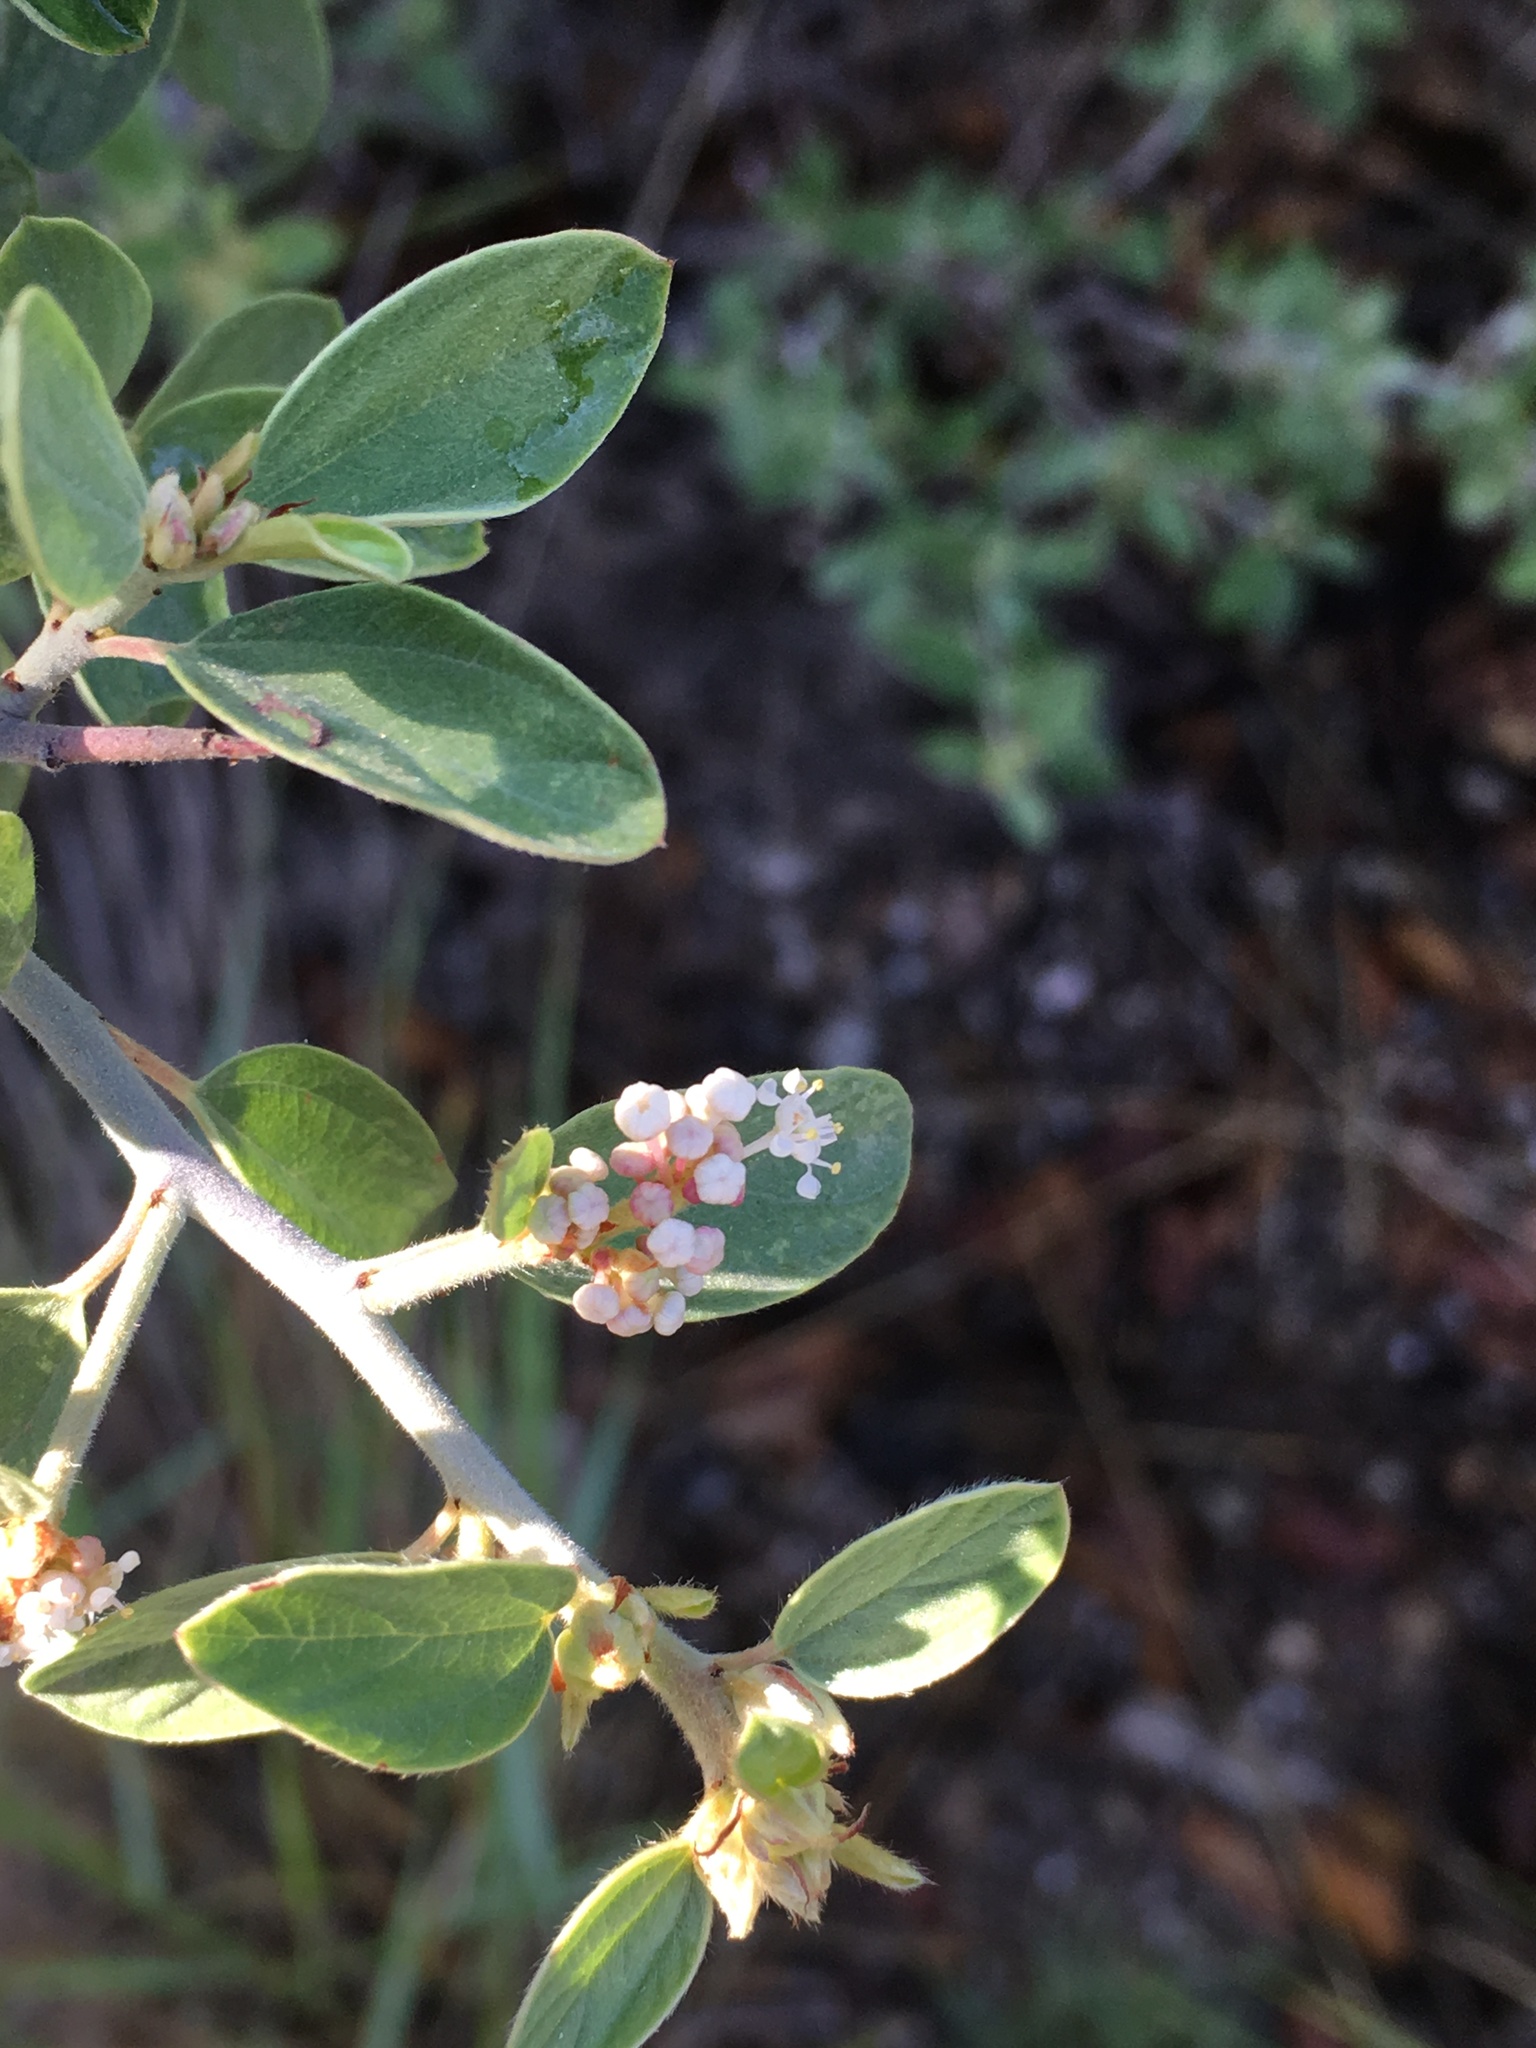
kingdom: Plantae
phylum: Tracheophyta
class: Magnoliopsida
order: Rosales
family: Rhamnaceae
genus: Ceanothus
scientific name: Ceanothus fendleri
